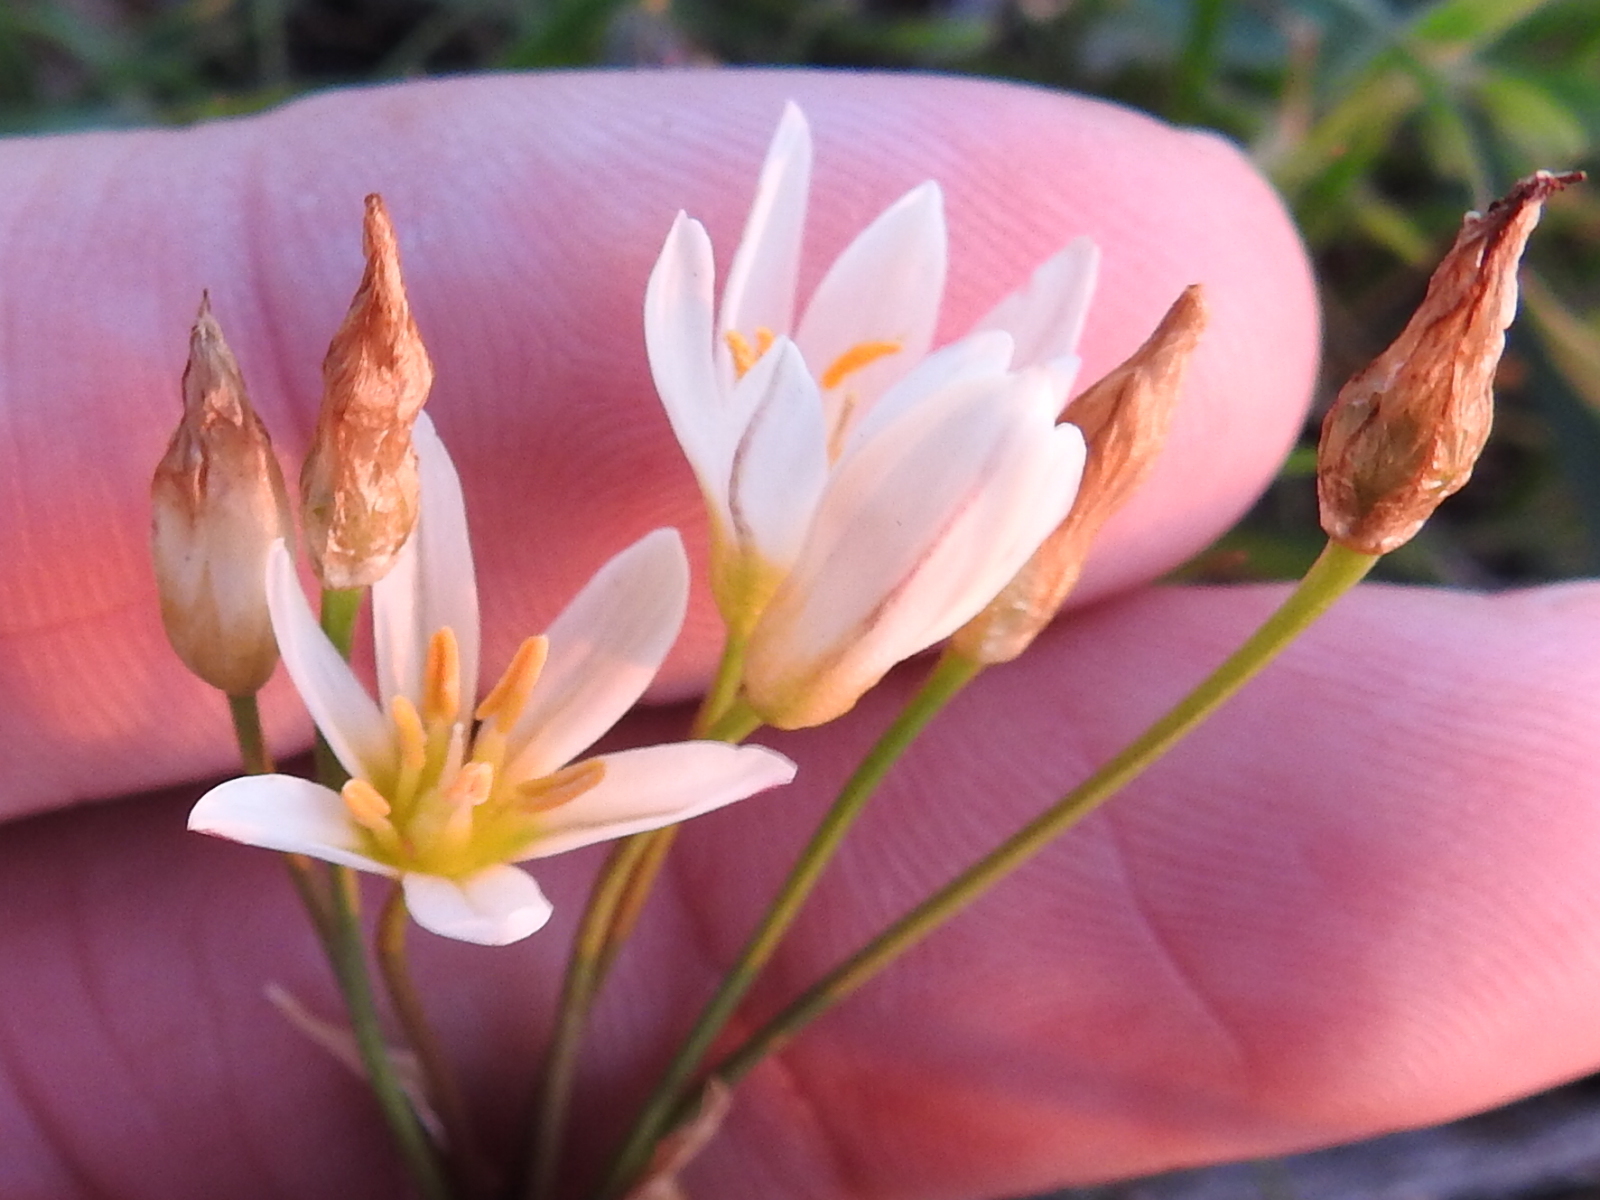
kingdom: Plantae
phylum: Tracheophyta
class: Liliopsida
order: Asparagales
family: Amaryllidaceae
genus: Nothoscordum
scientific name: Nothoscordum bivalve
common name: Crow-poison
